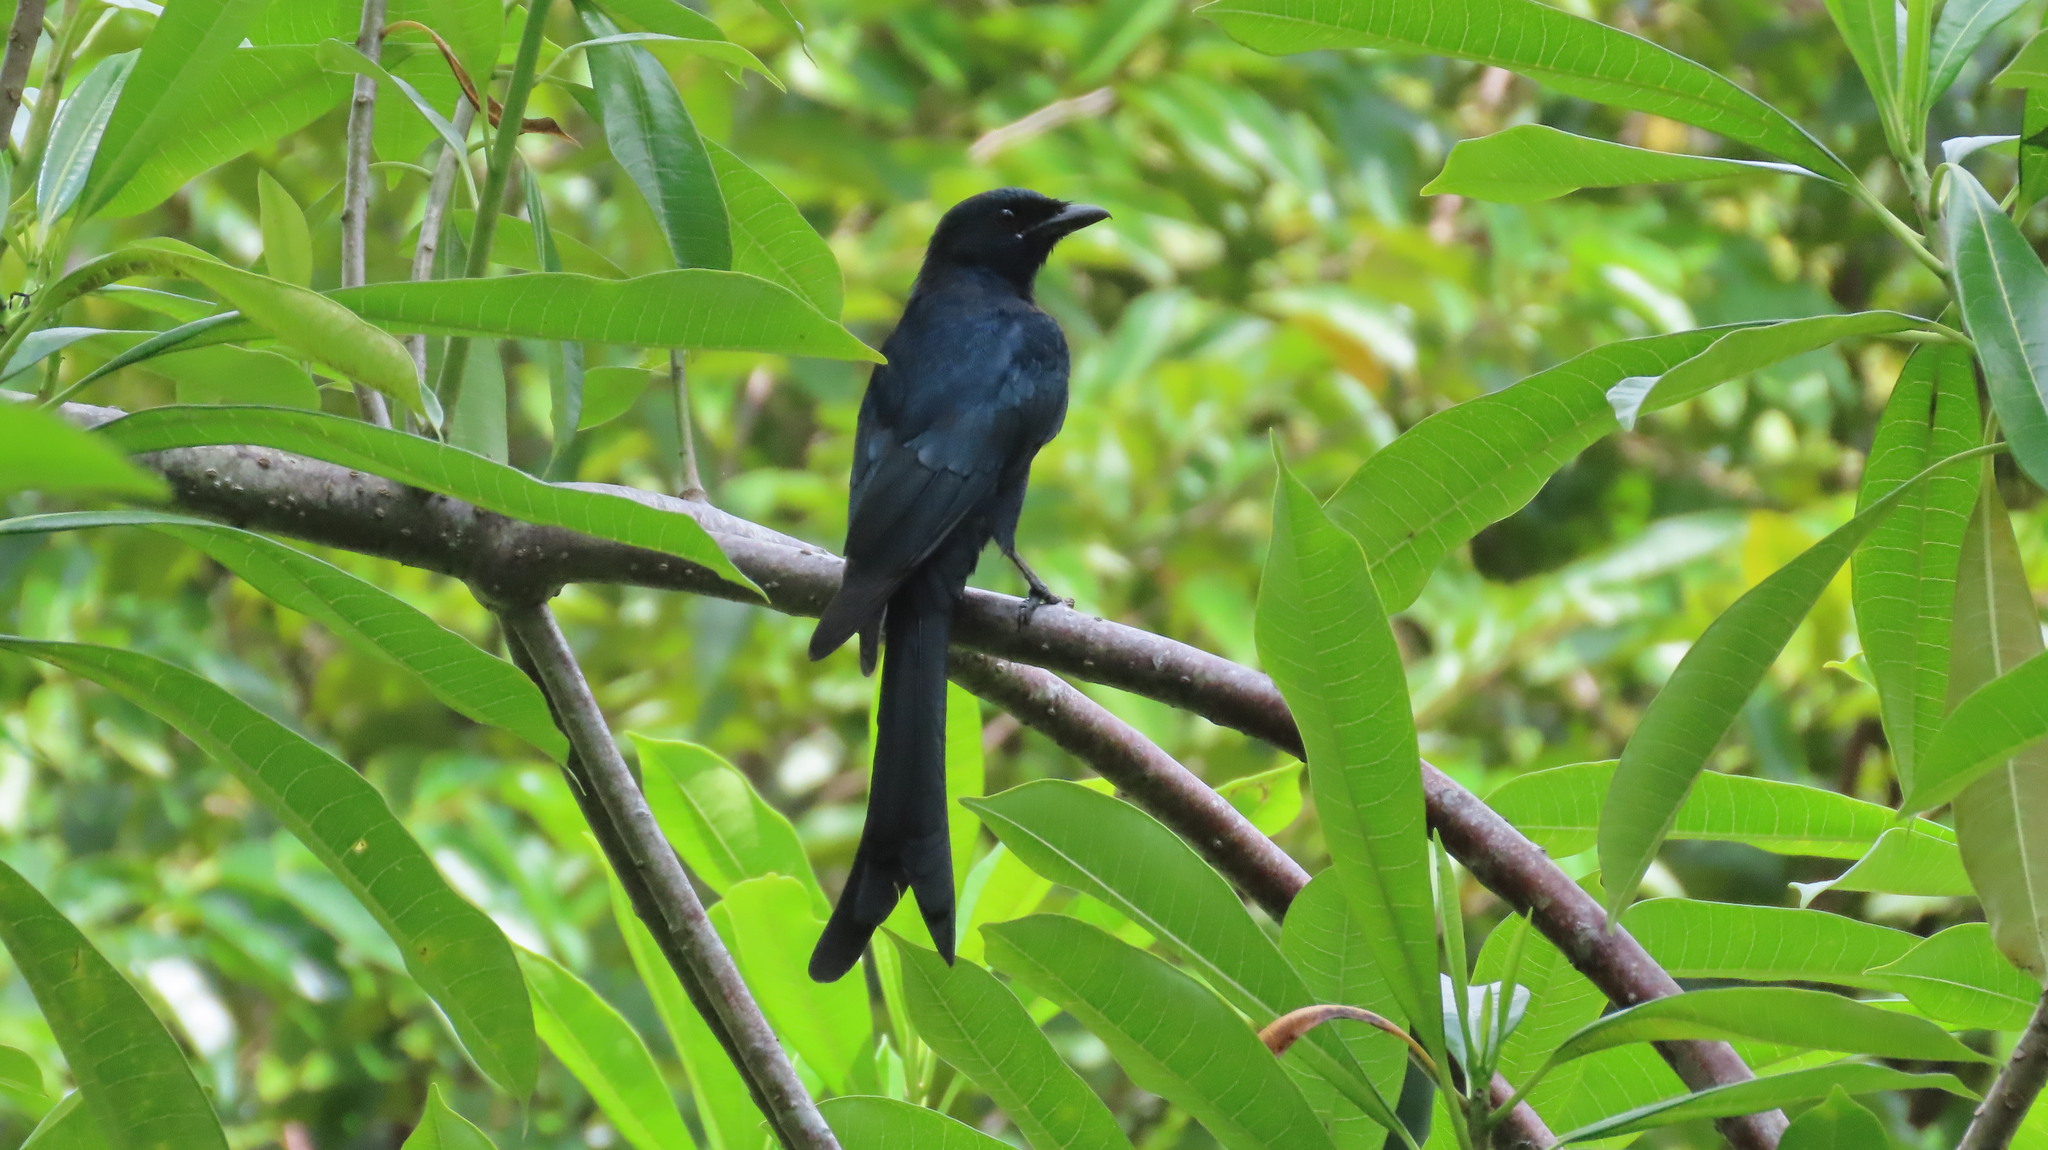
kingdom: Animalia
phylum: Chordata
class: Aves
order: Passeriformes
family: Dicruridae
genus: Dicrurus
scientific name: Dicrurus macrocercus
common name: Black drongo
